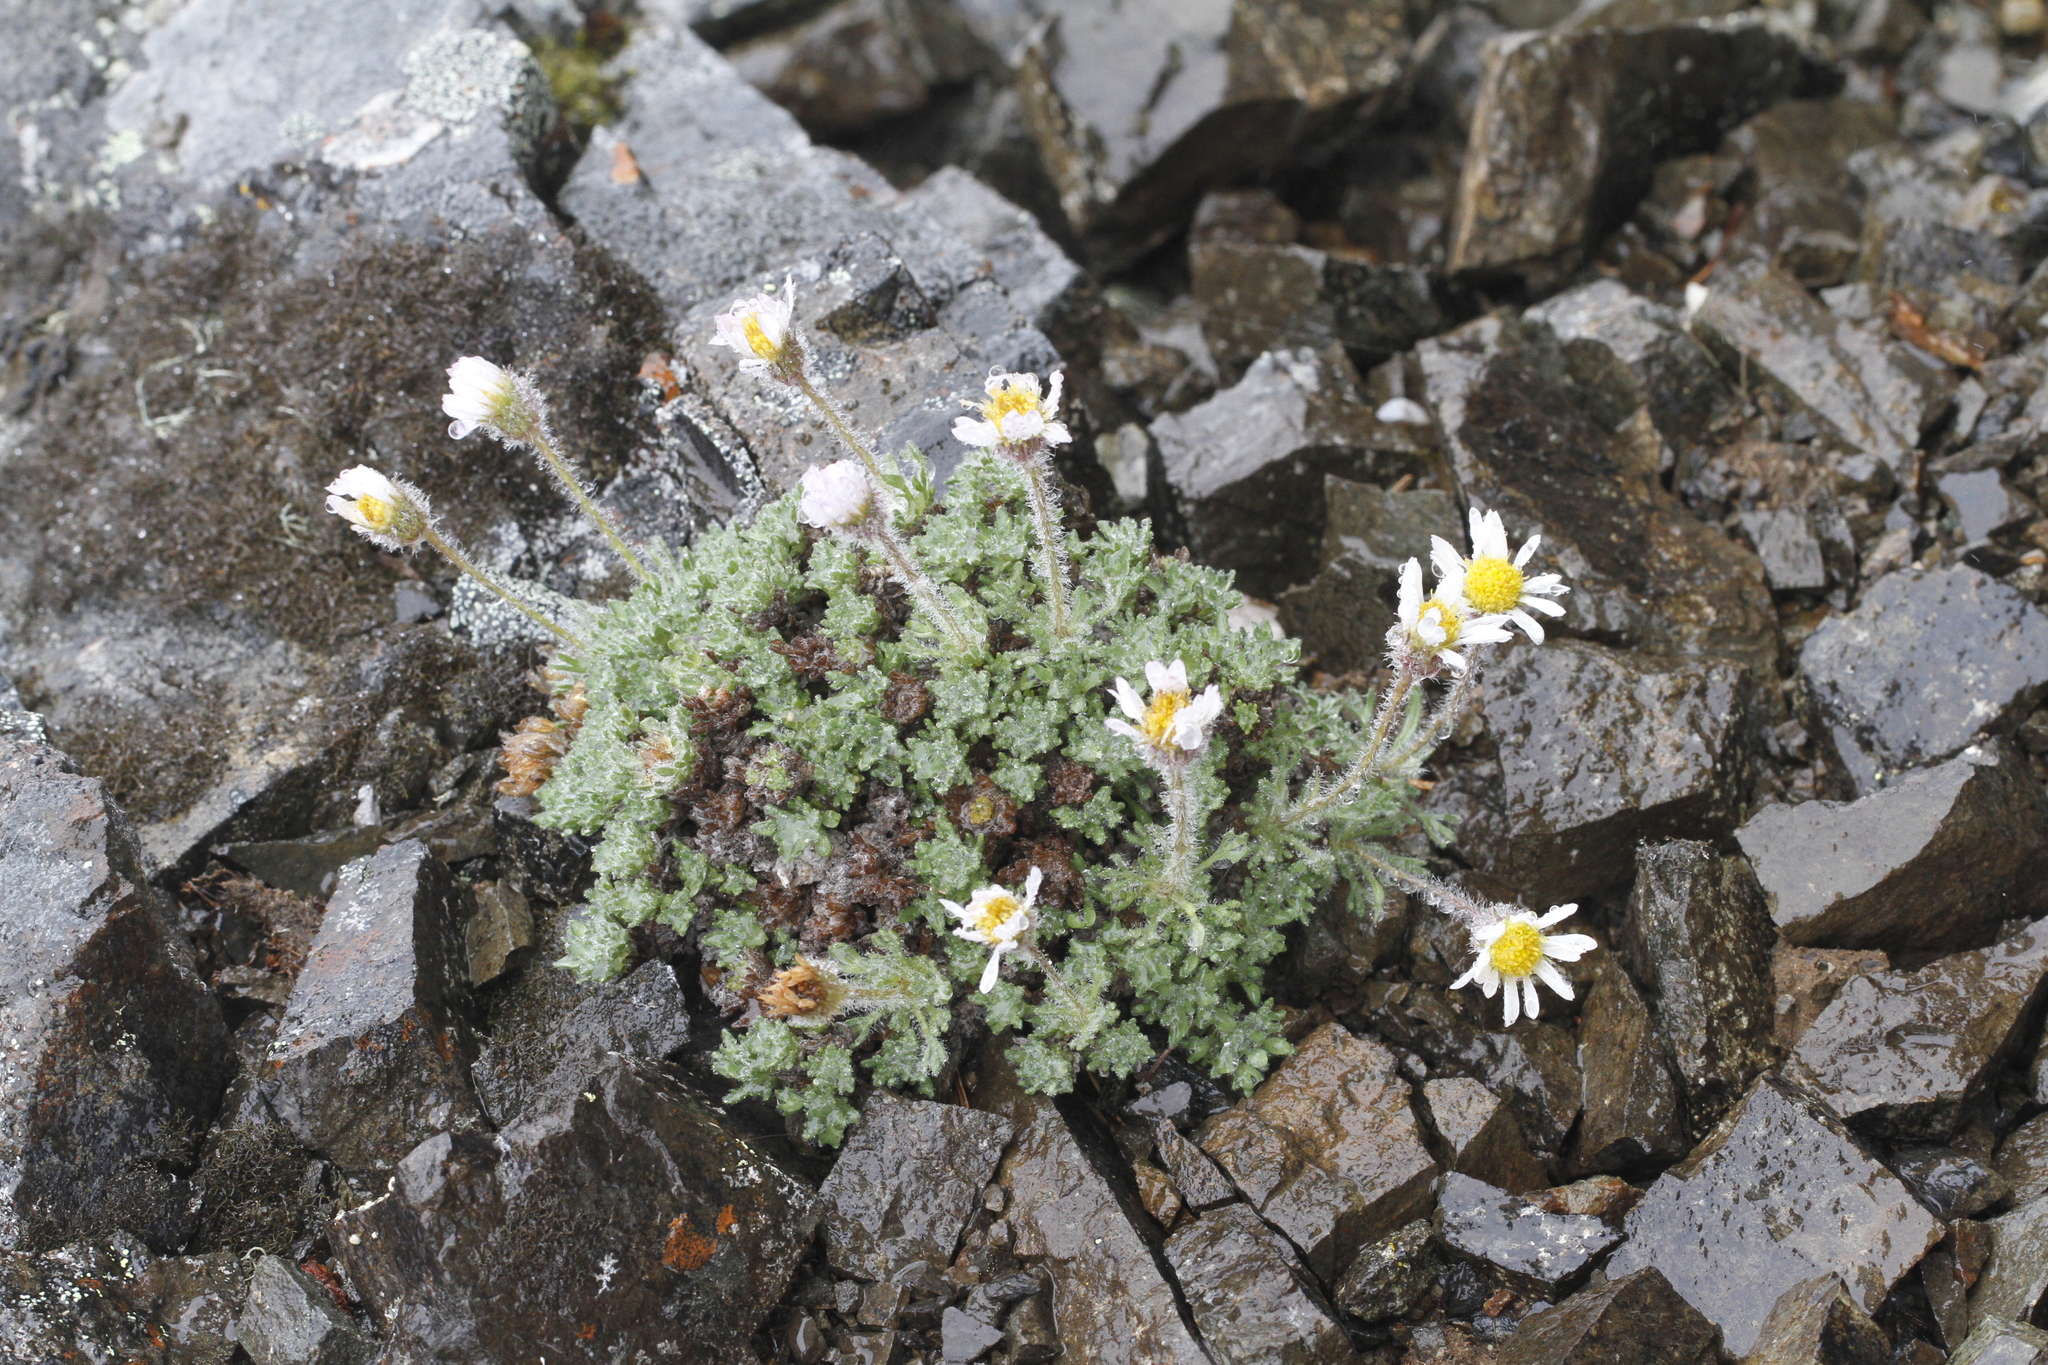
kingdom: Plantae
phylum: Tracheophyta
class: Magnoliopsida
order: Asterales
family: Asteraceae
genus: Erigeron
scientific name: Erigeron salishii
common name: Salish daisy
